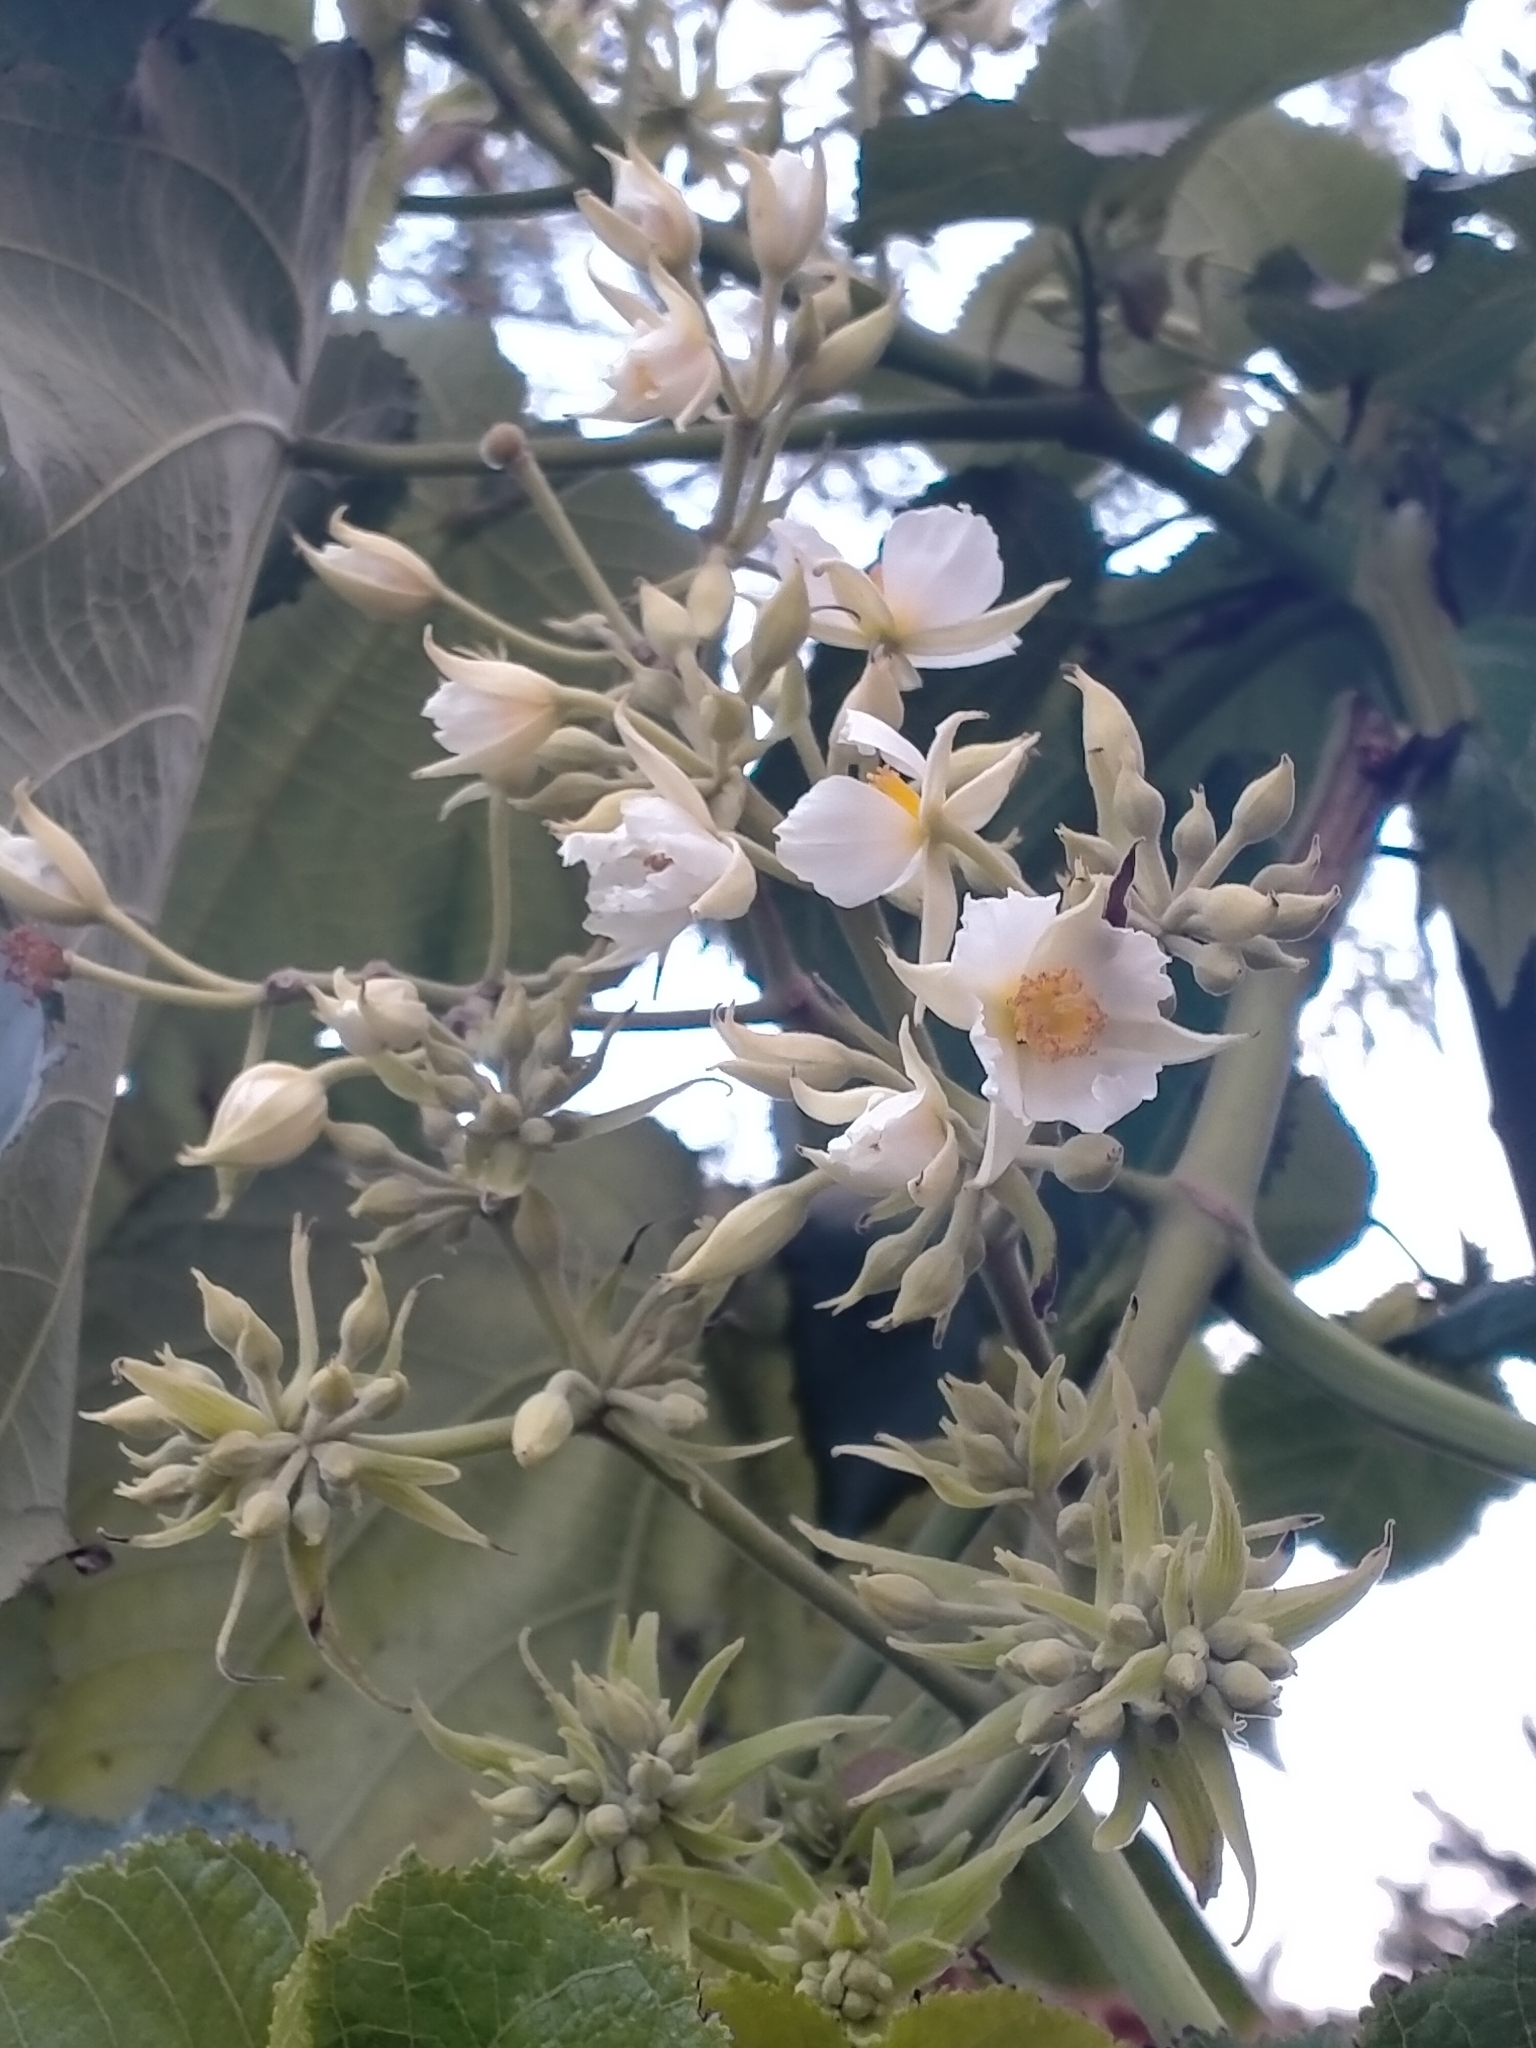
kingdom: Plantae
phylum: Tracheophyta
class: Magnoliopsida
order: Malvales
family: Malvaceae
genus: Entelea
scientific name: Entelea arborescens
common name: New zealand-mulberry
